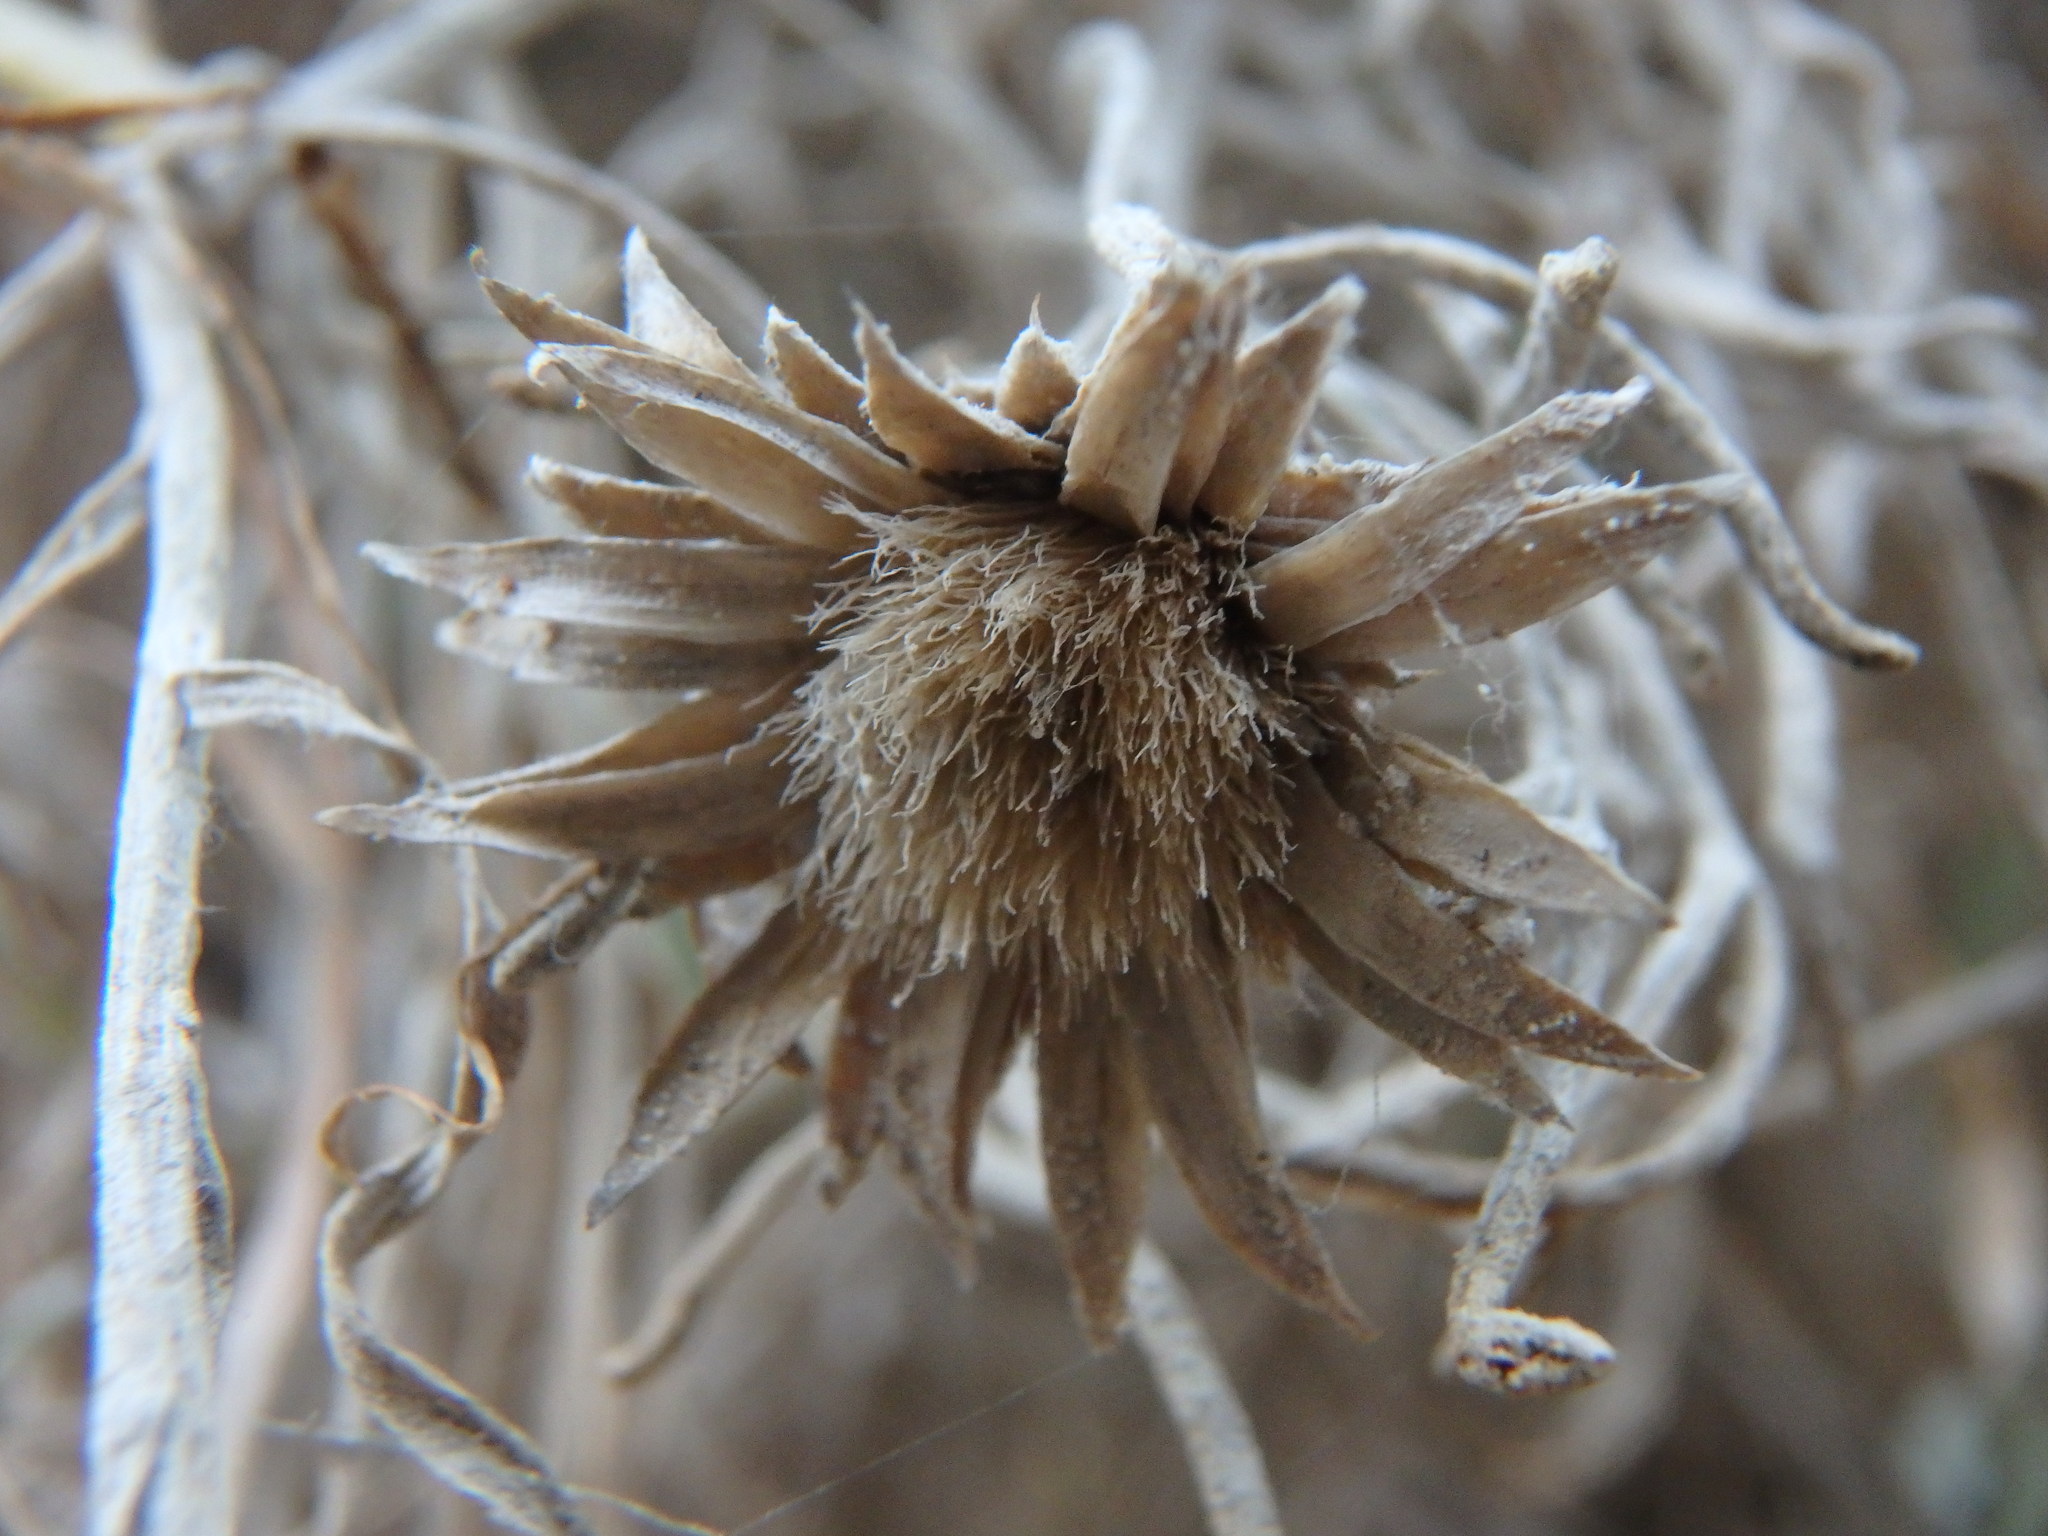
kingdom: Plantae
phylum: Tracheophyta
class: Magnoliopsida
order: Asterales
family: Asteraceae
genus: Centaurea
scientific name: Centaurea akamantis
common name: Akamas centaury
